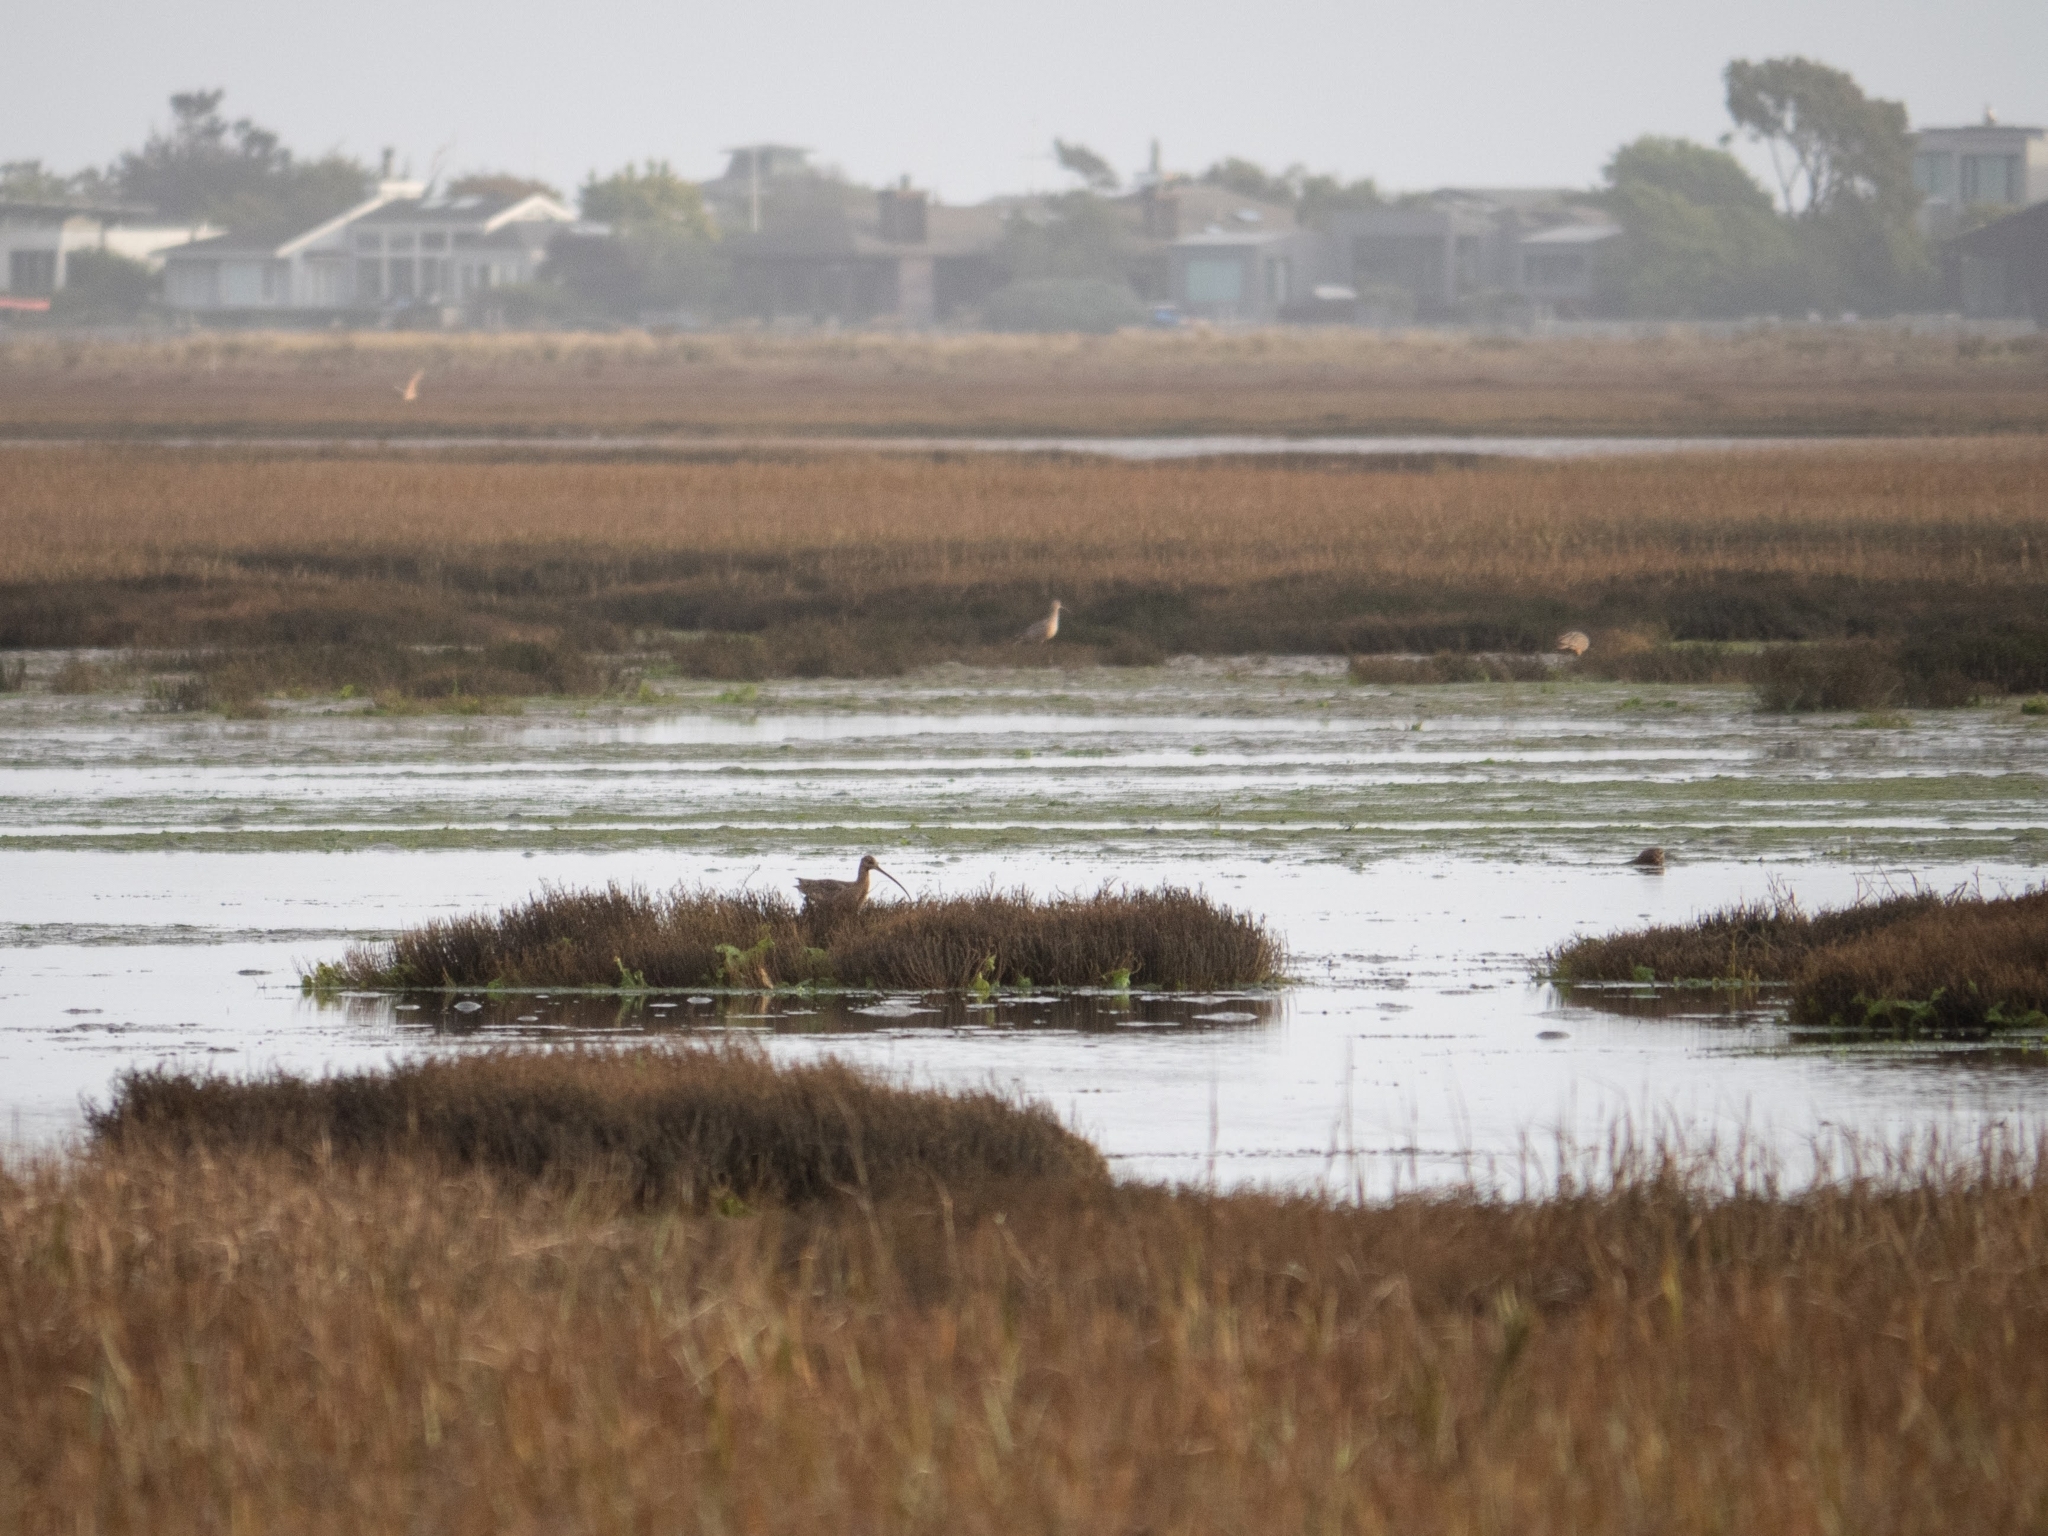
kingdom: Animalia
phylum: Chordata
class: Aves
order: Charadriiformes
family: Scolopacidae
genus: Numenius
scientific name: Numenius americanus
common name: Long-billed curlew
